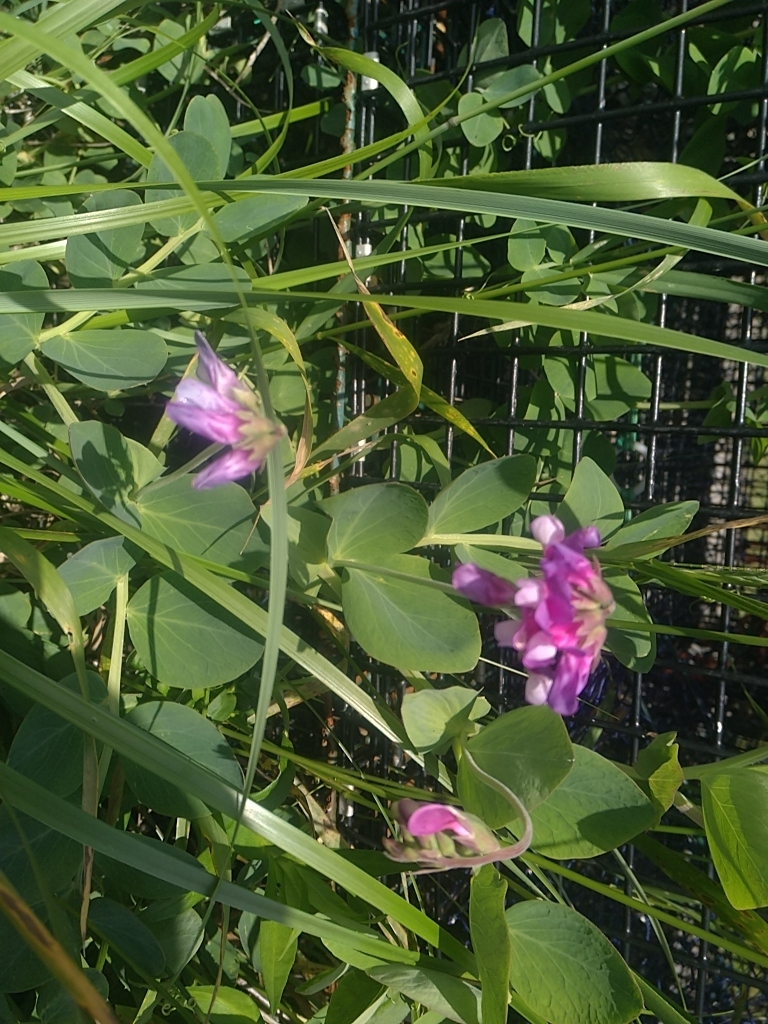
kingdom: Plantae
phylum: Tracheophyta
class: Magnoliopsida
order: Fabales
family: Fabaceae
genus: Lathyrus
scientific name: Lathyrus japonicus
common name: Sea pea
